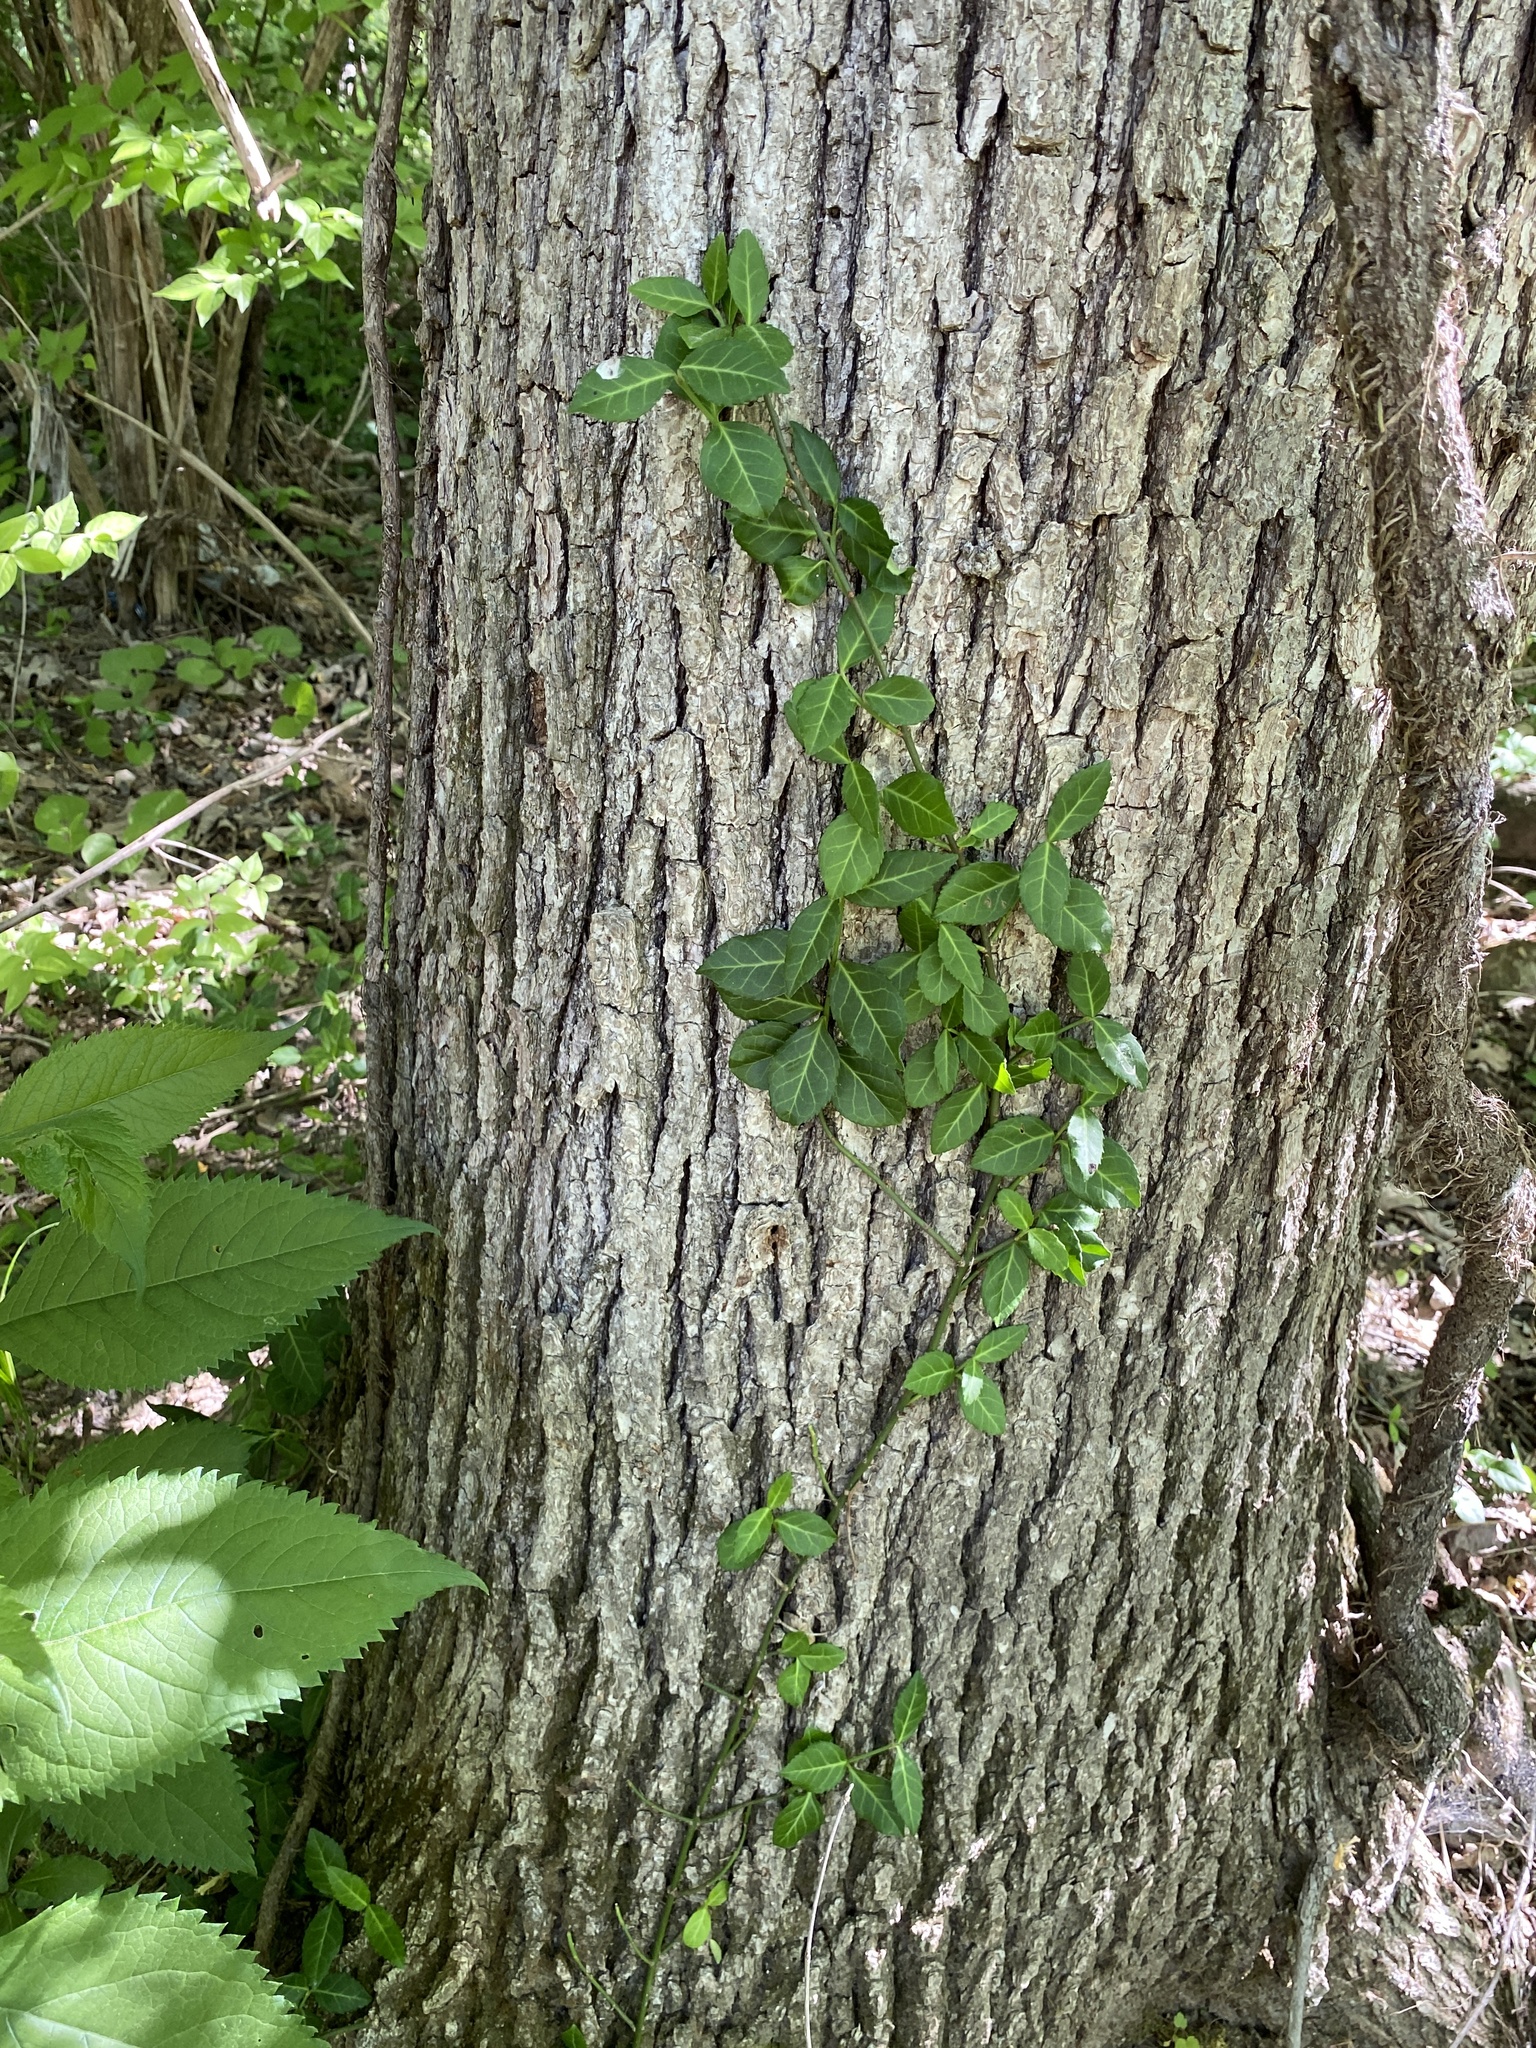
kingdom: Plantae
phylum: Tracheophyta
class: Magnoliopsida
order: Celastrales
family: Celastraceae
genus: Euonymus
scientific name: Euonymus fortunei
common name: Climbing euonymus
